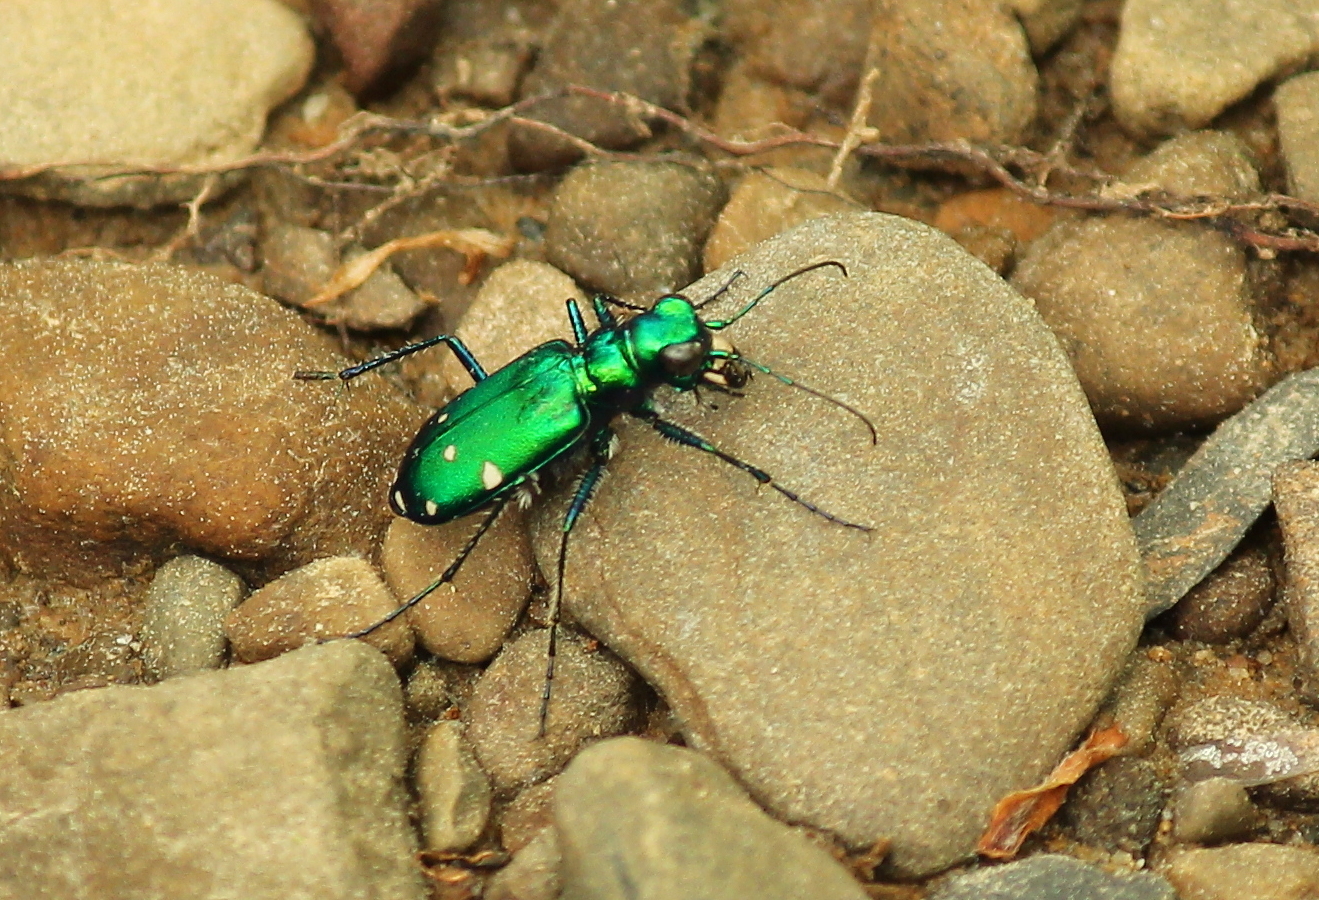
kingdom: Animalia
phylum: Arthropoda
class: Insecta
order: Coleoptera
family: Carabidae
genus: Cicindela
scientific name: Cicindela sexguttata
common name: Six-spotted tiger beetle
